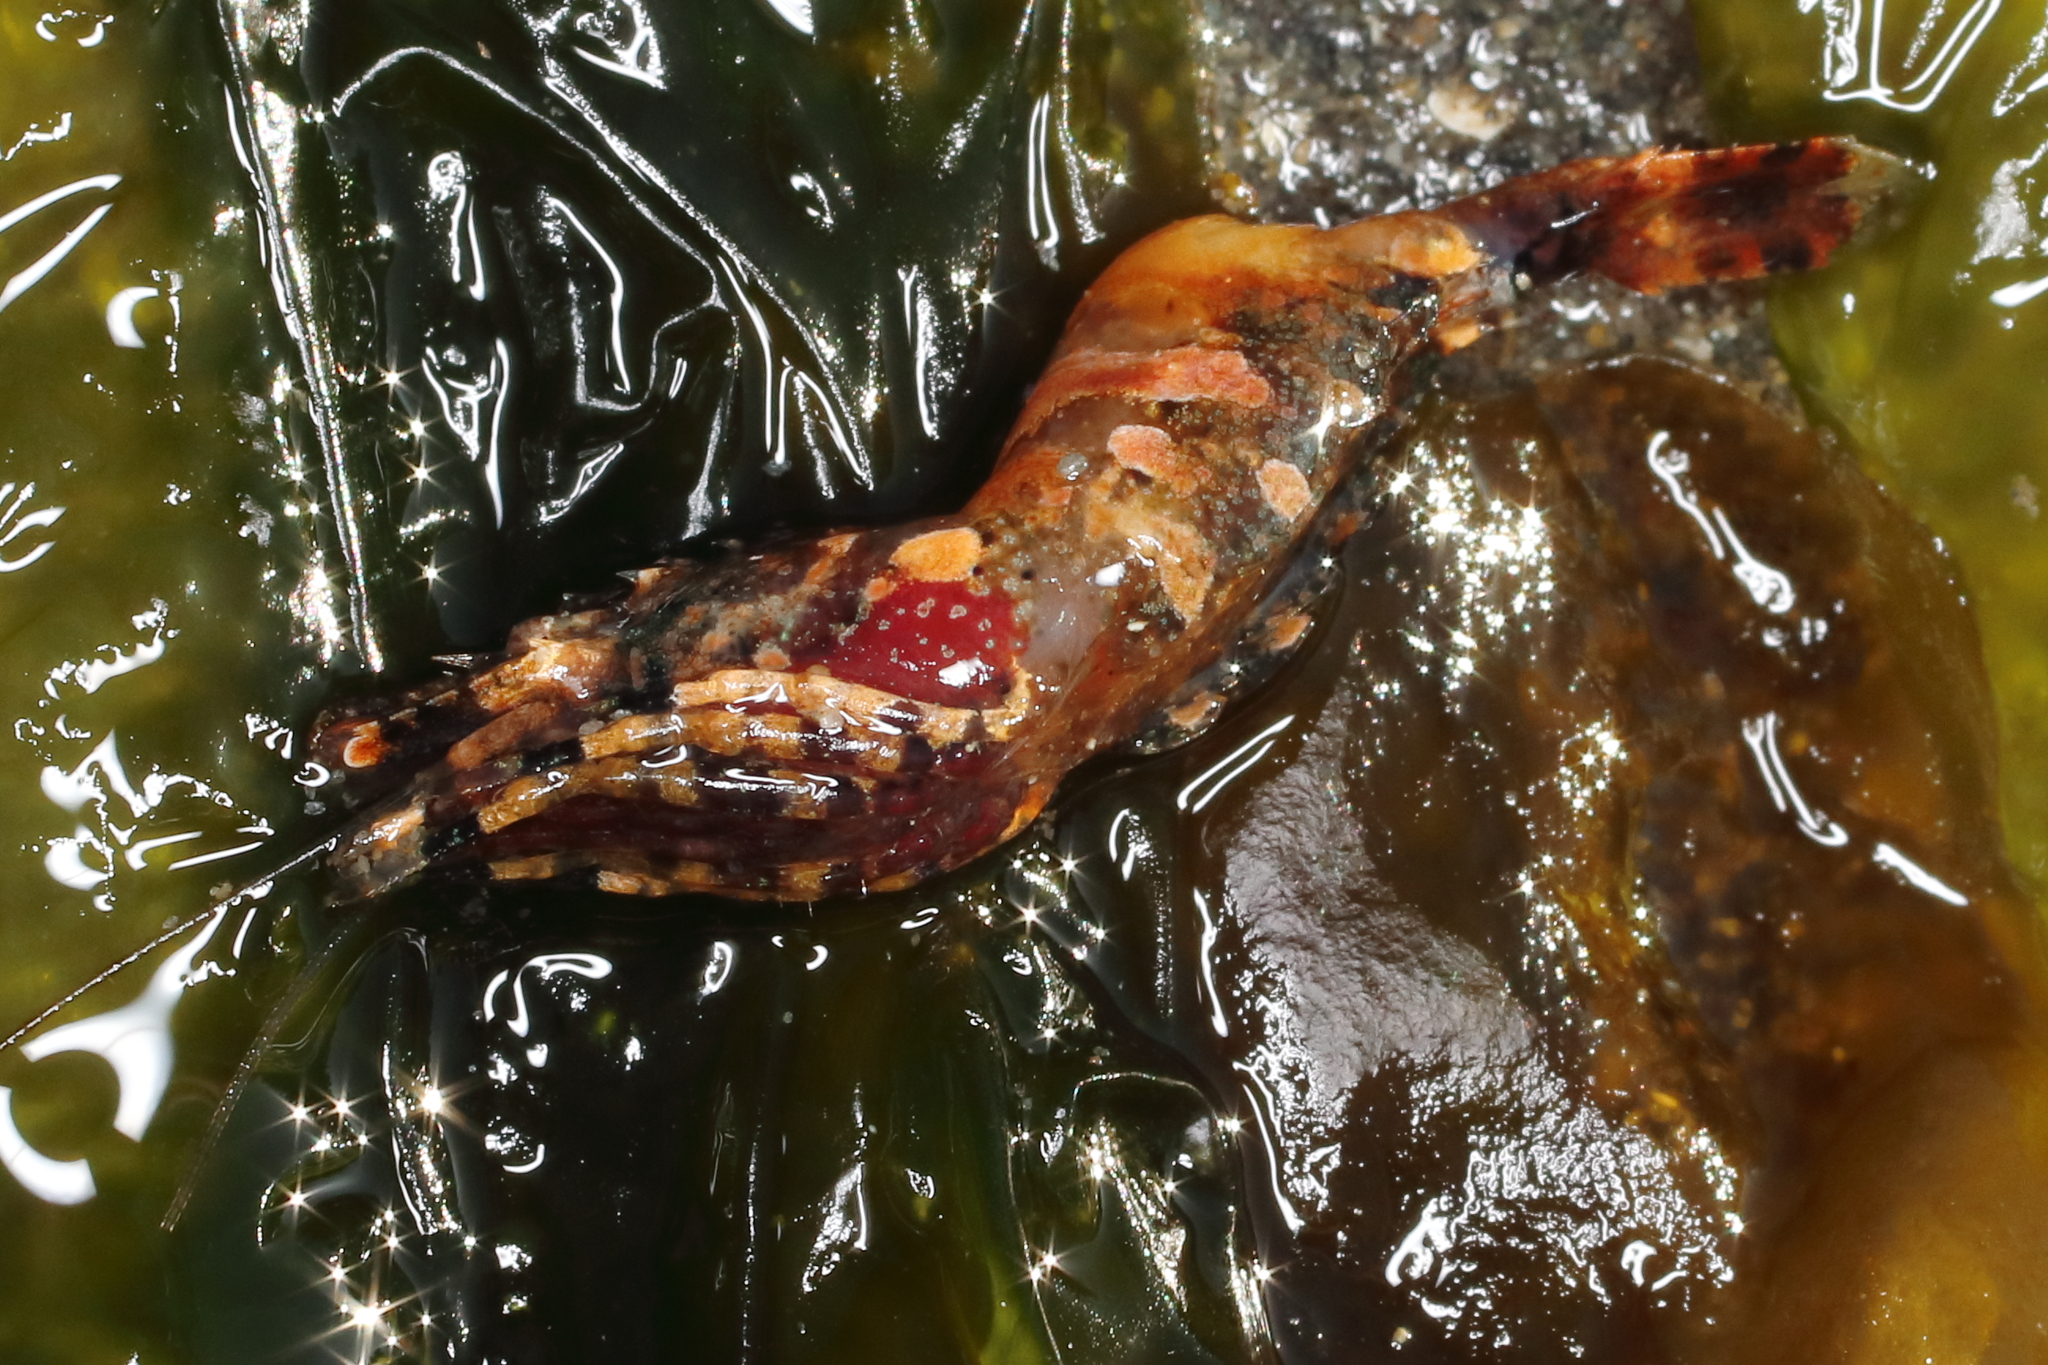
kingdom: Animalia
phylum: Arthropoda
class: Malacostraca
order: Decapoda
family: Thoridae
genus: Heptacarpus
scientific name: Heptacarpus brevirostris
